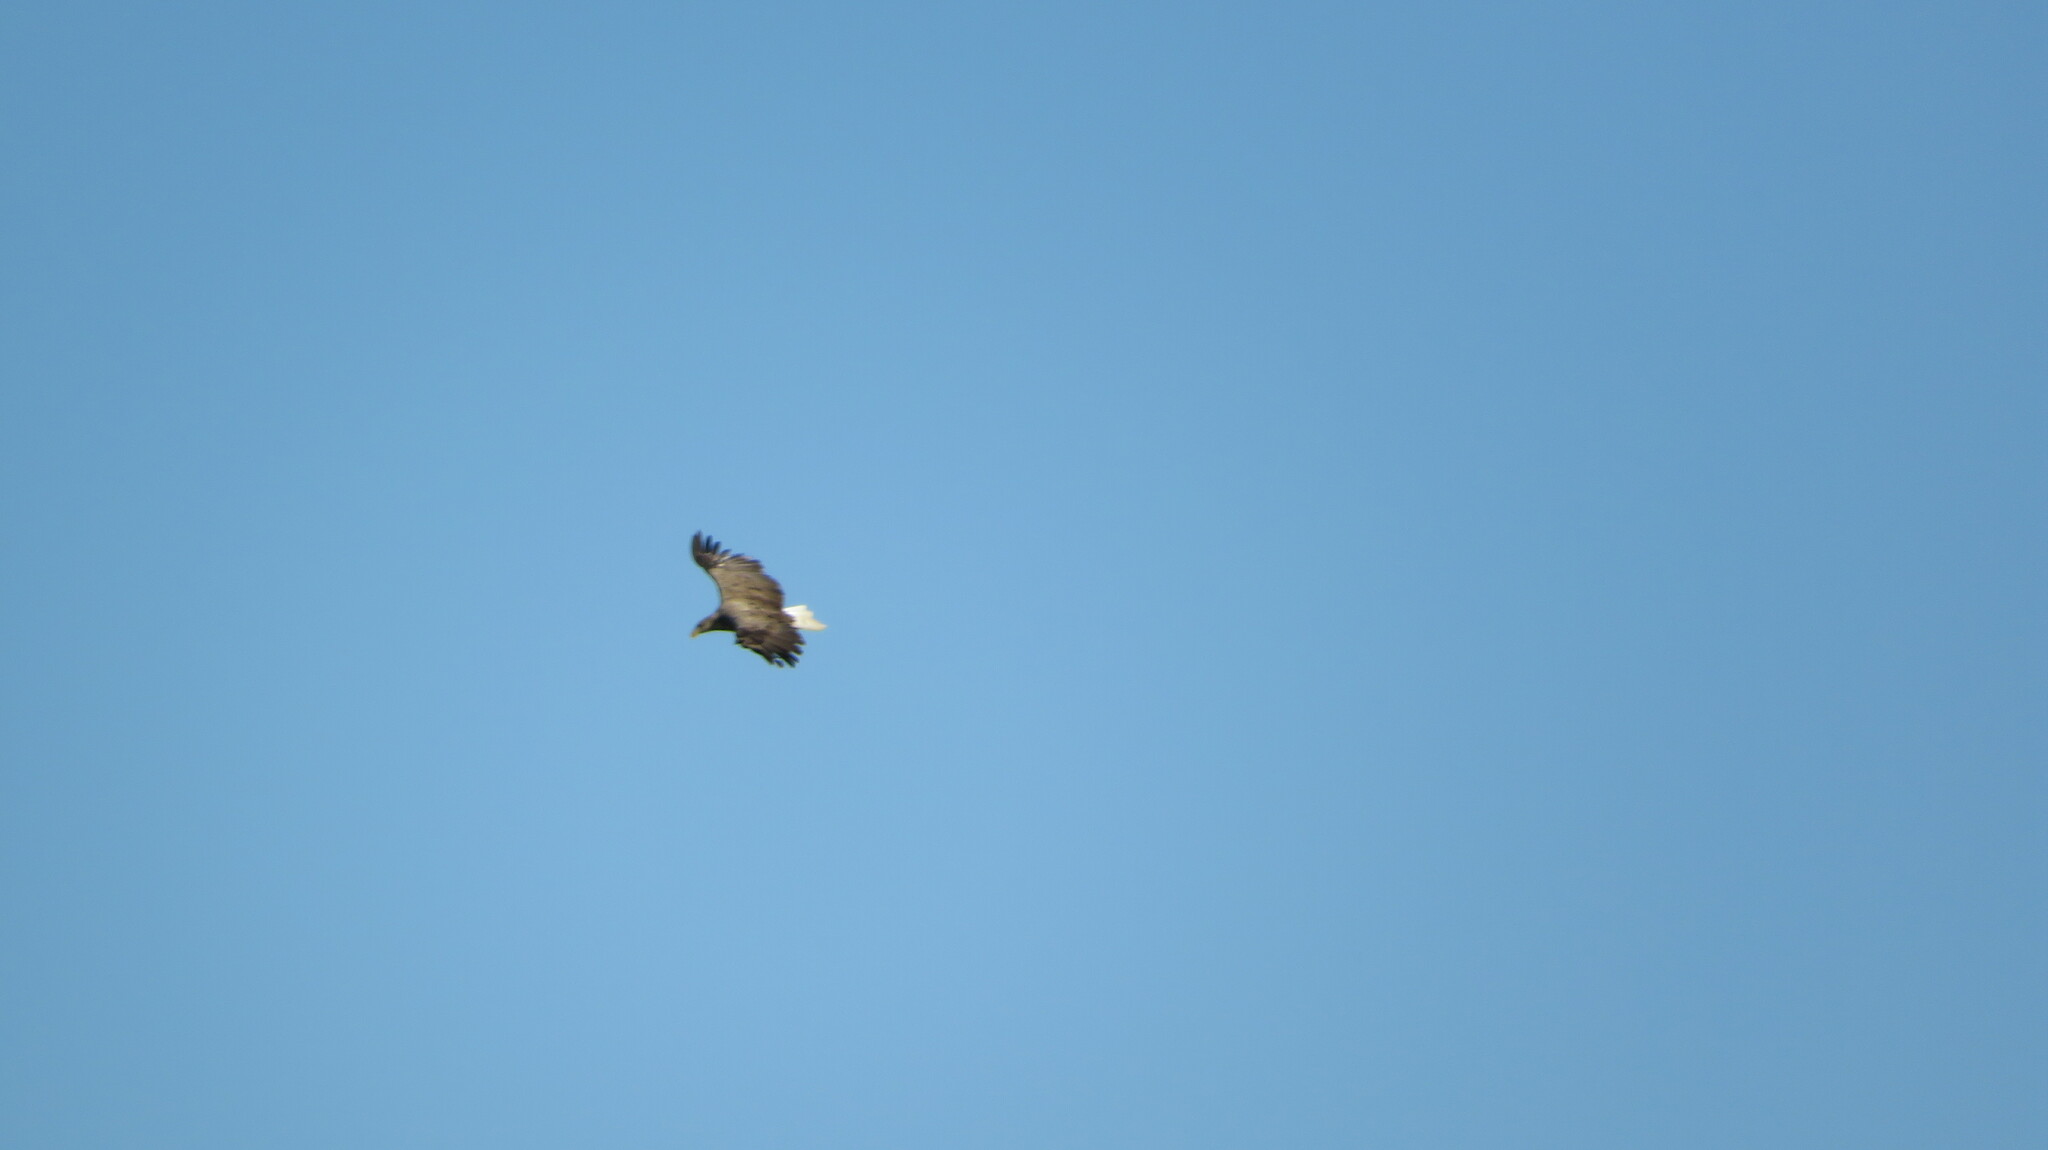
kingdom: Animalia
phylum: Chordata
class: Aves
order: Accipitriformes
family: Accipitridae
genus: Haliaeetus
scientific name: Haliaeetus albicilla
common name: White-tailed eagle
